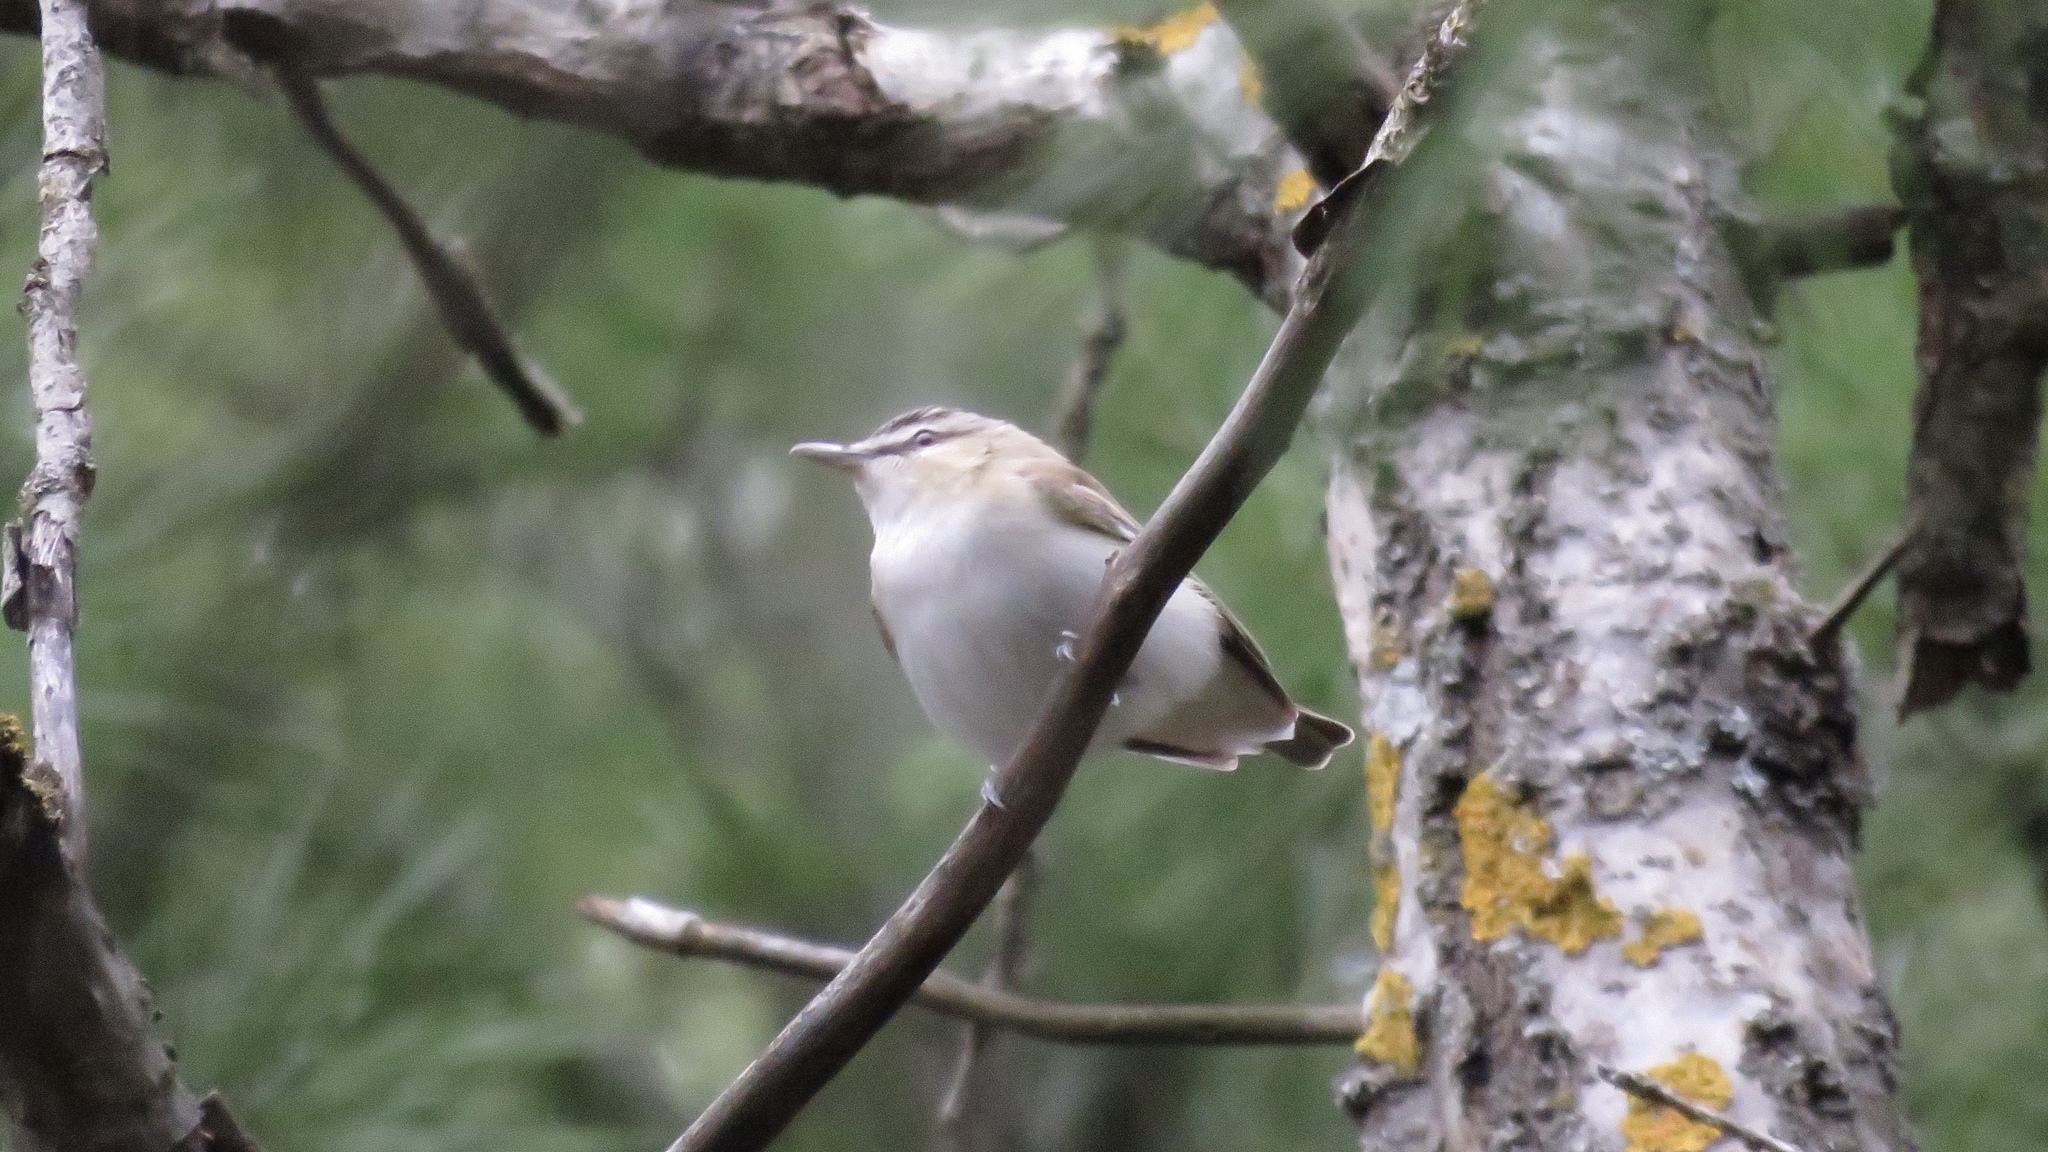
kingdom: Animalia
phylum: Chordata
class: Aves
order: Passeriformes
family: Vireonidae
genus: Vireo
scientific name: Vireo olivaceus
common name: Red-eyed vireo
